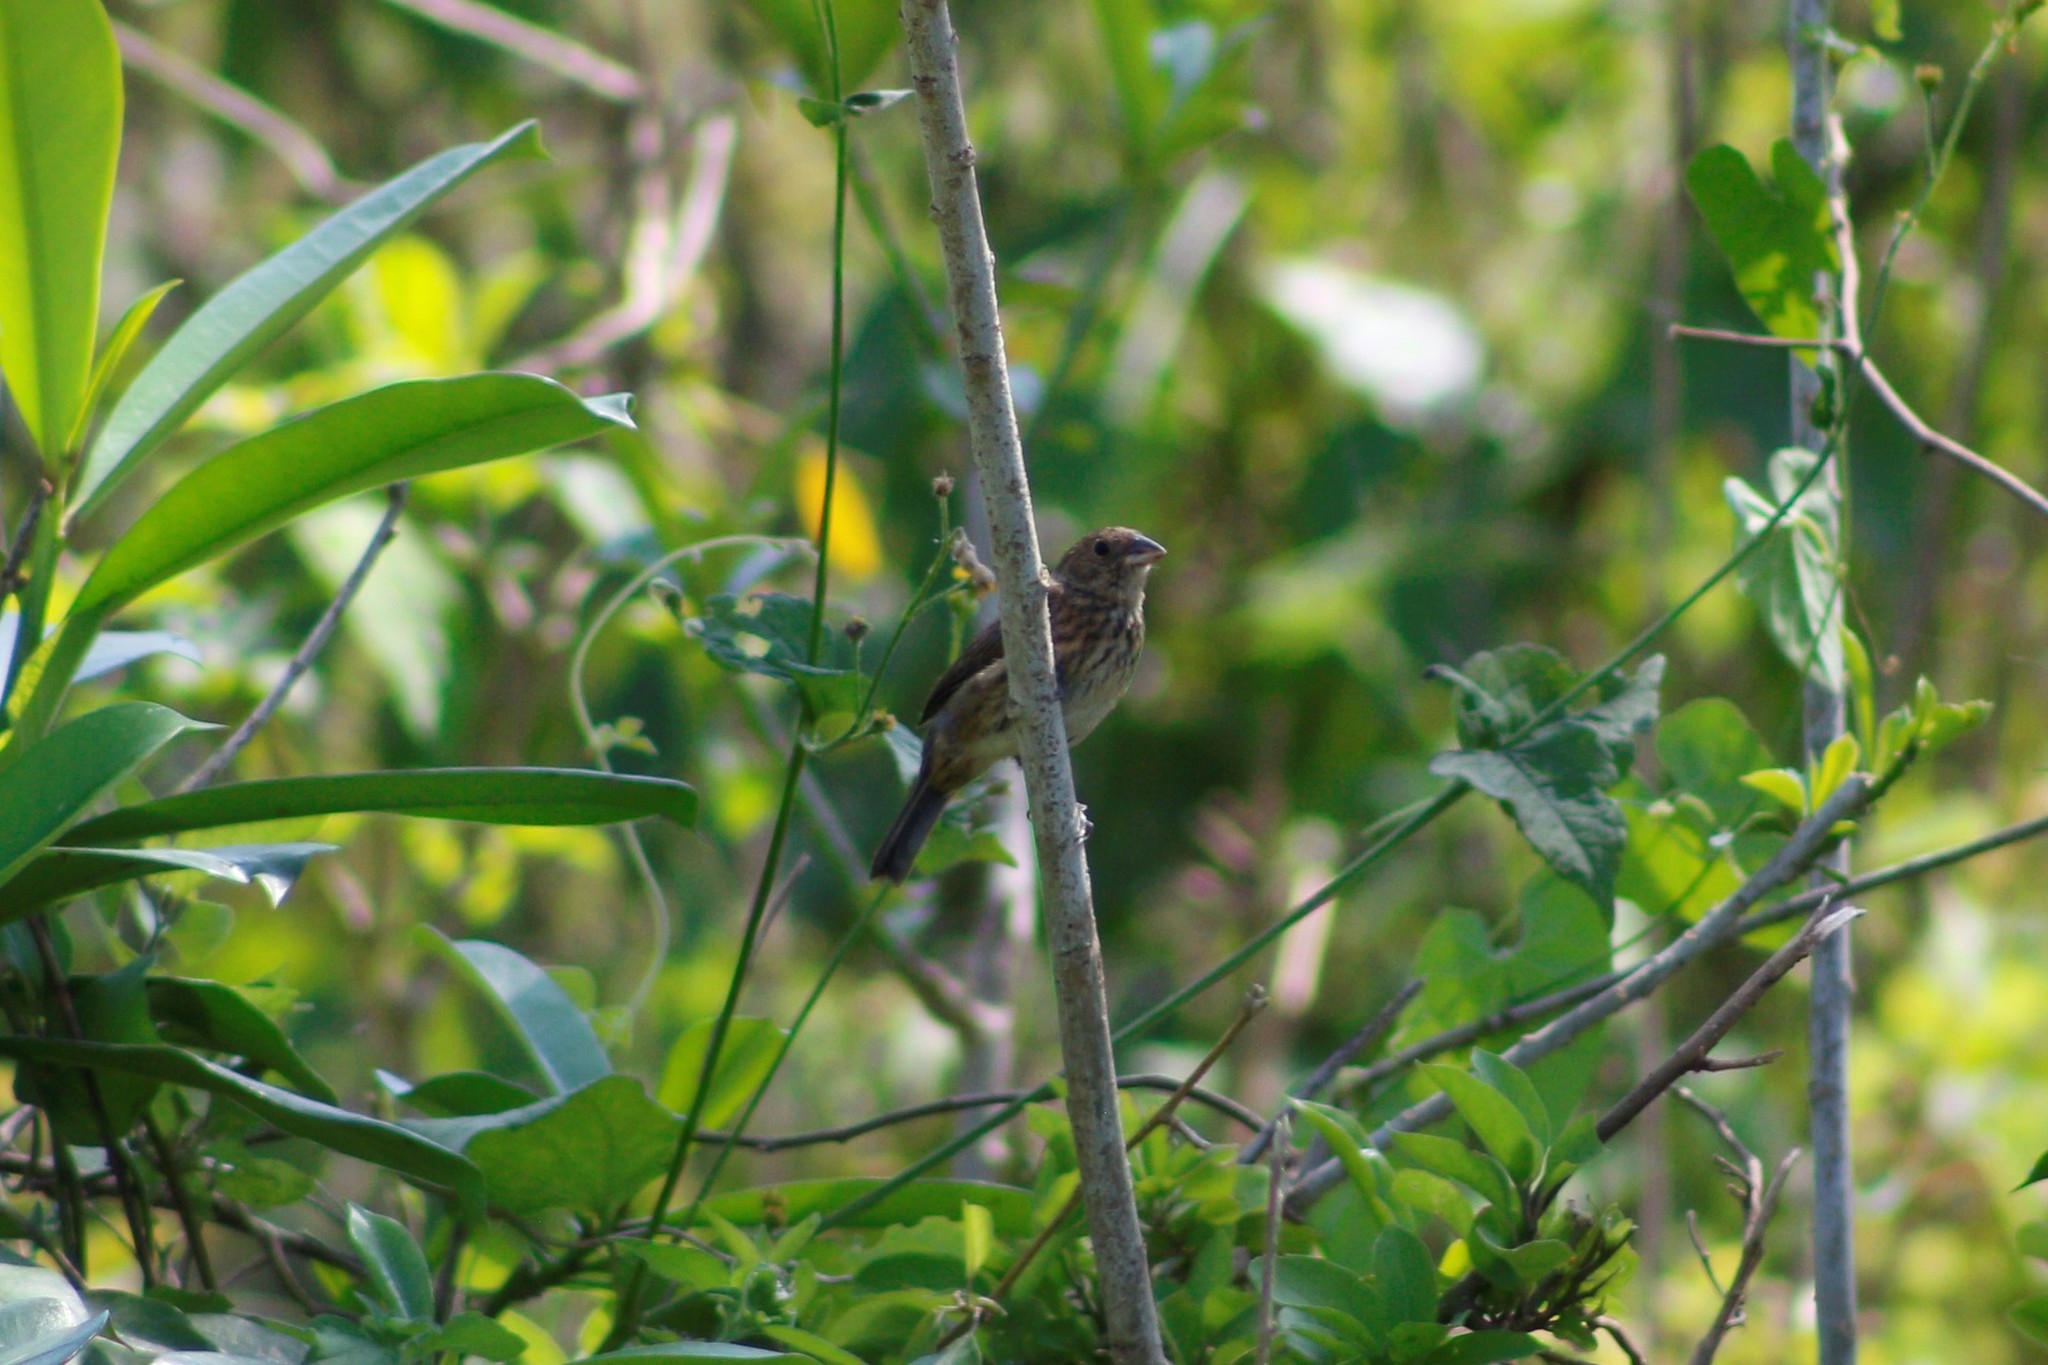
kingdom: Animalia
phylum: Chordata
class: Aves
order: Passeriformes
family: Thraupidae
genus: Volatinia
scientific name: Volatinia jacarina
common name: Blue-black grassquit
